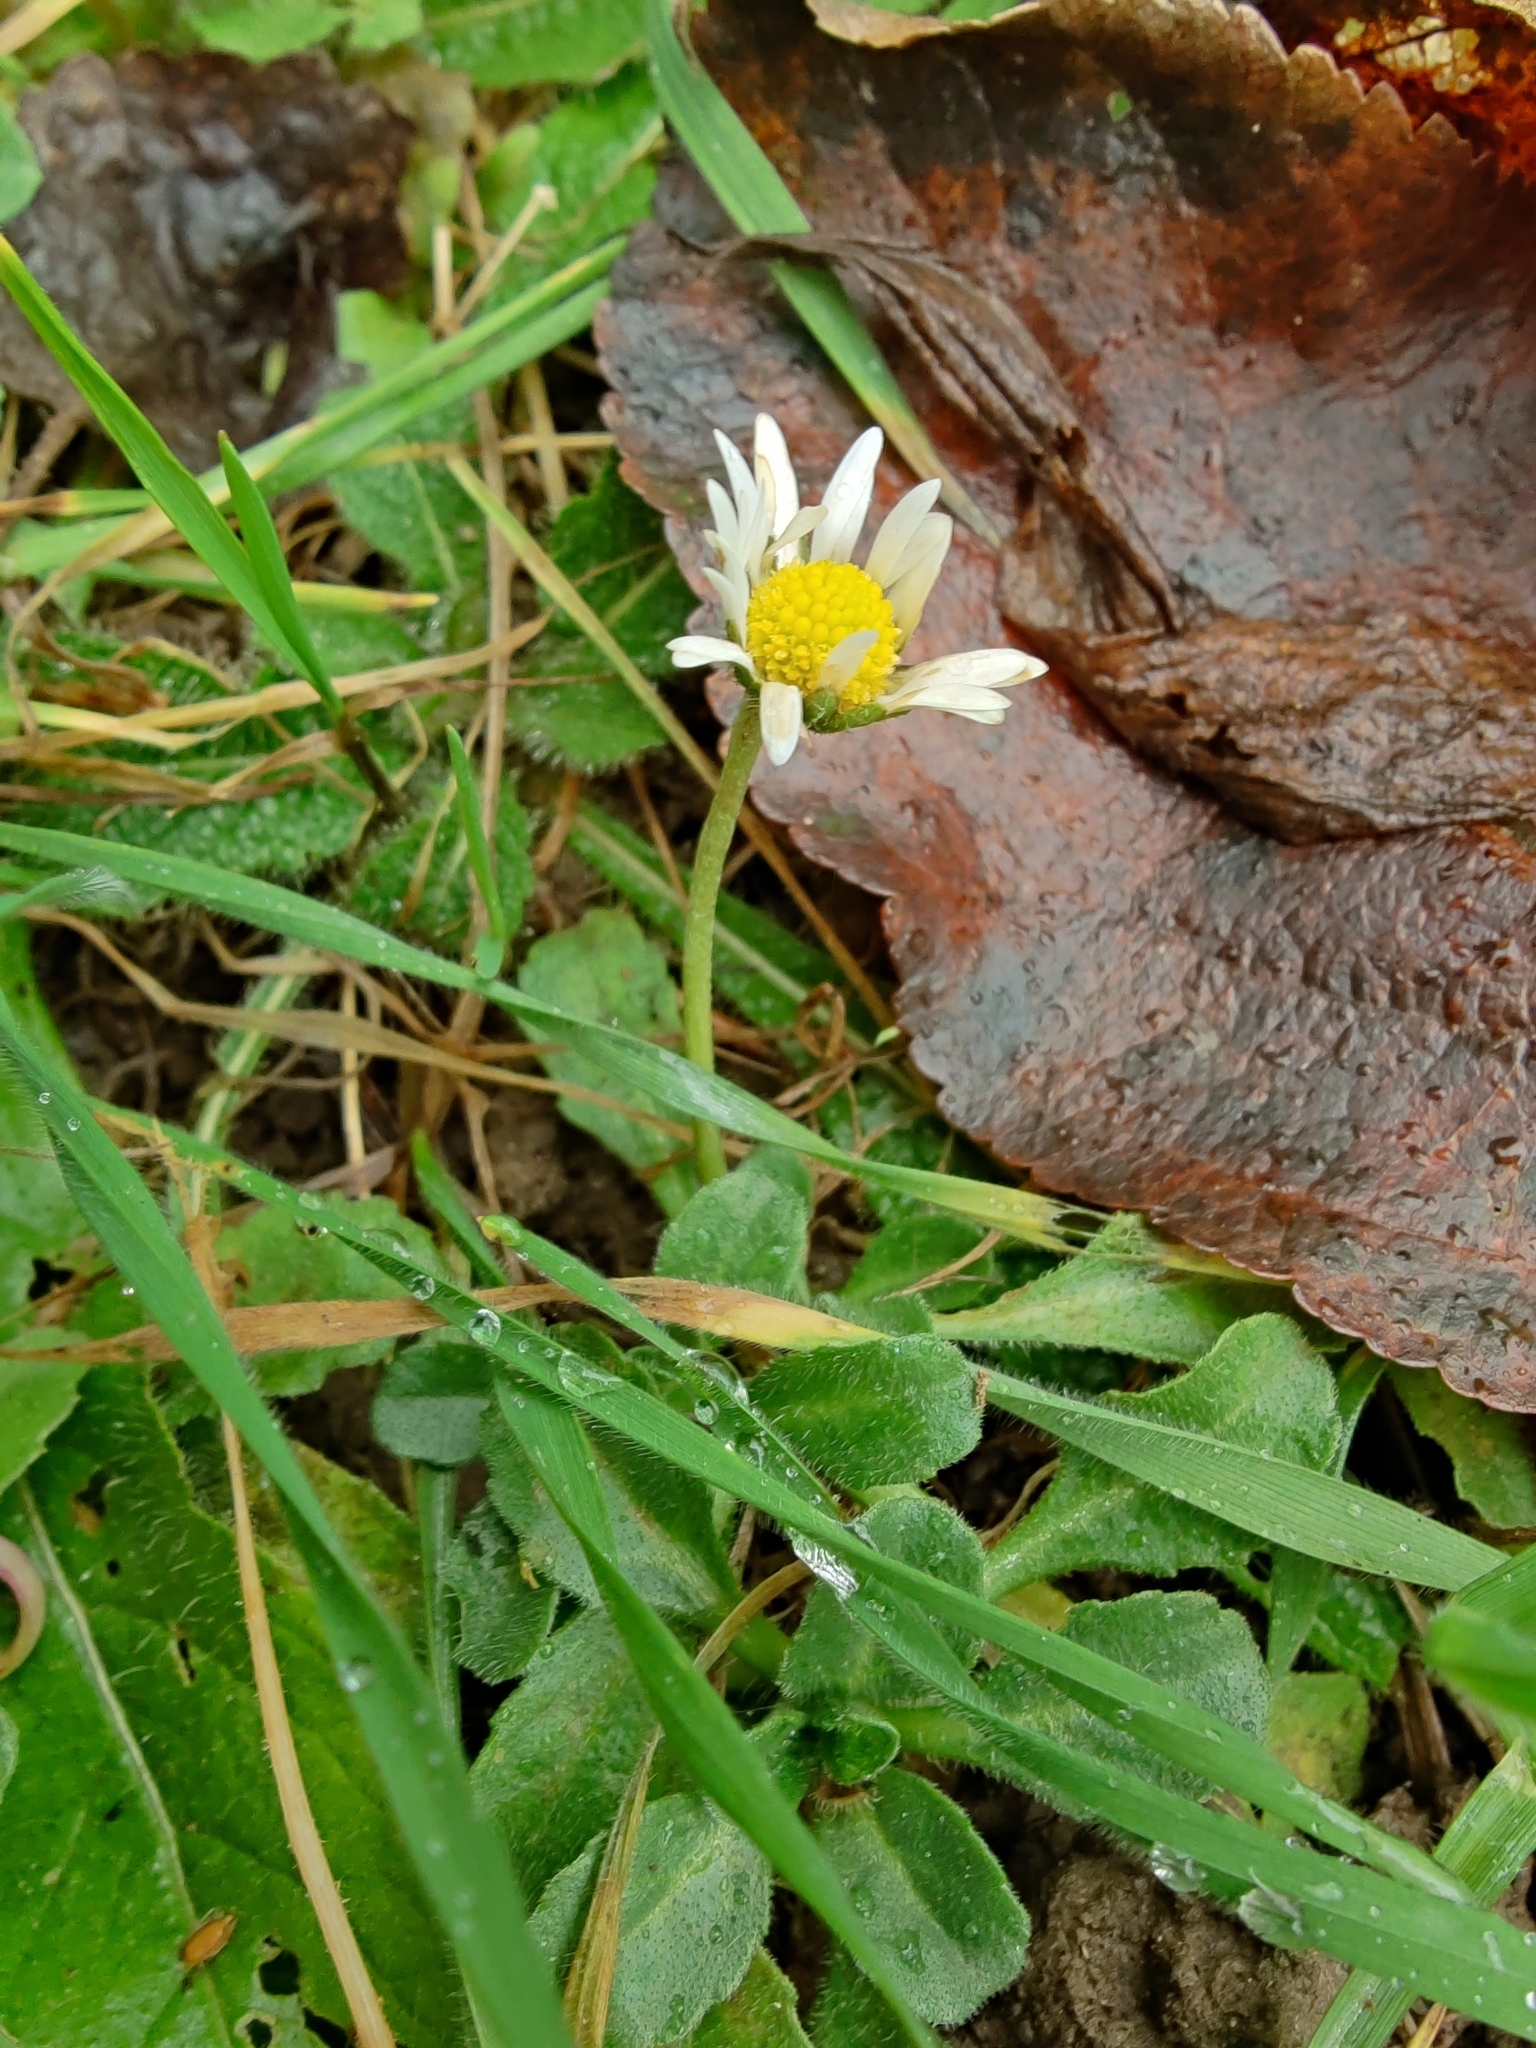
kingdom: Plantae
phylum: Tracheophyta
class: Magnoliopsida
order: Asterales
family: Asteraceae
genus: Bellis
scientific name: Bellis perennis
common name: Lawndaisy
